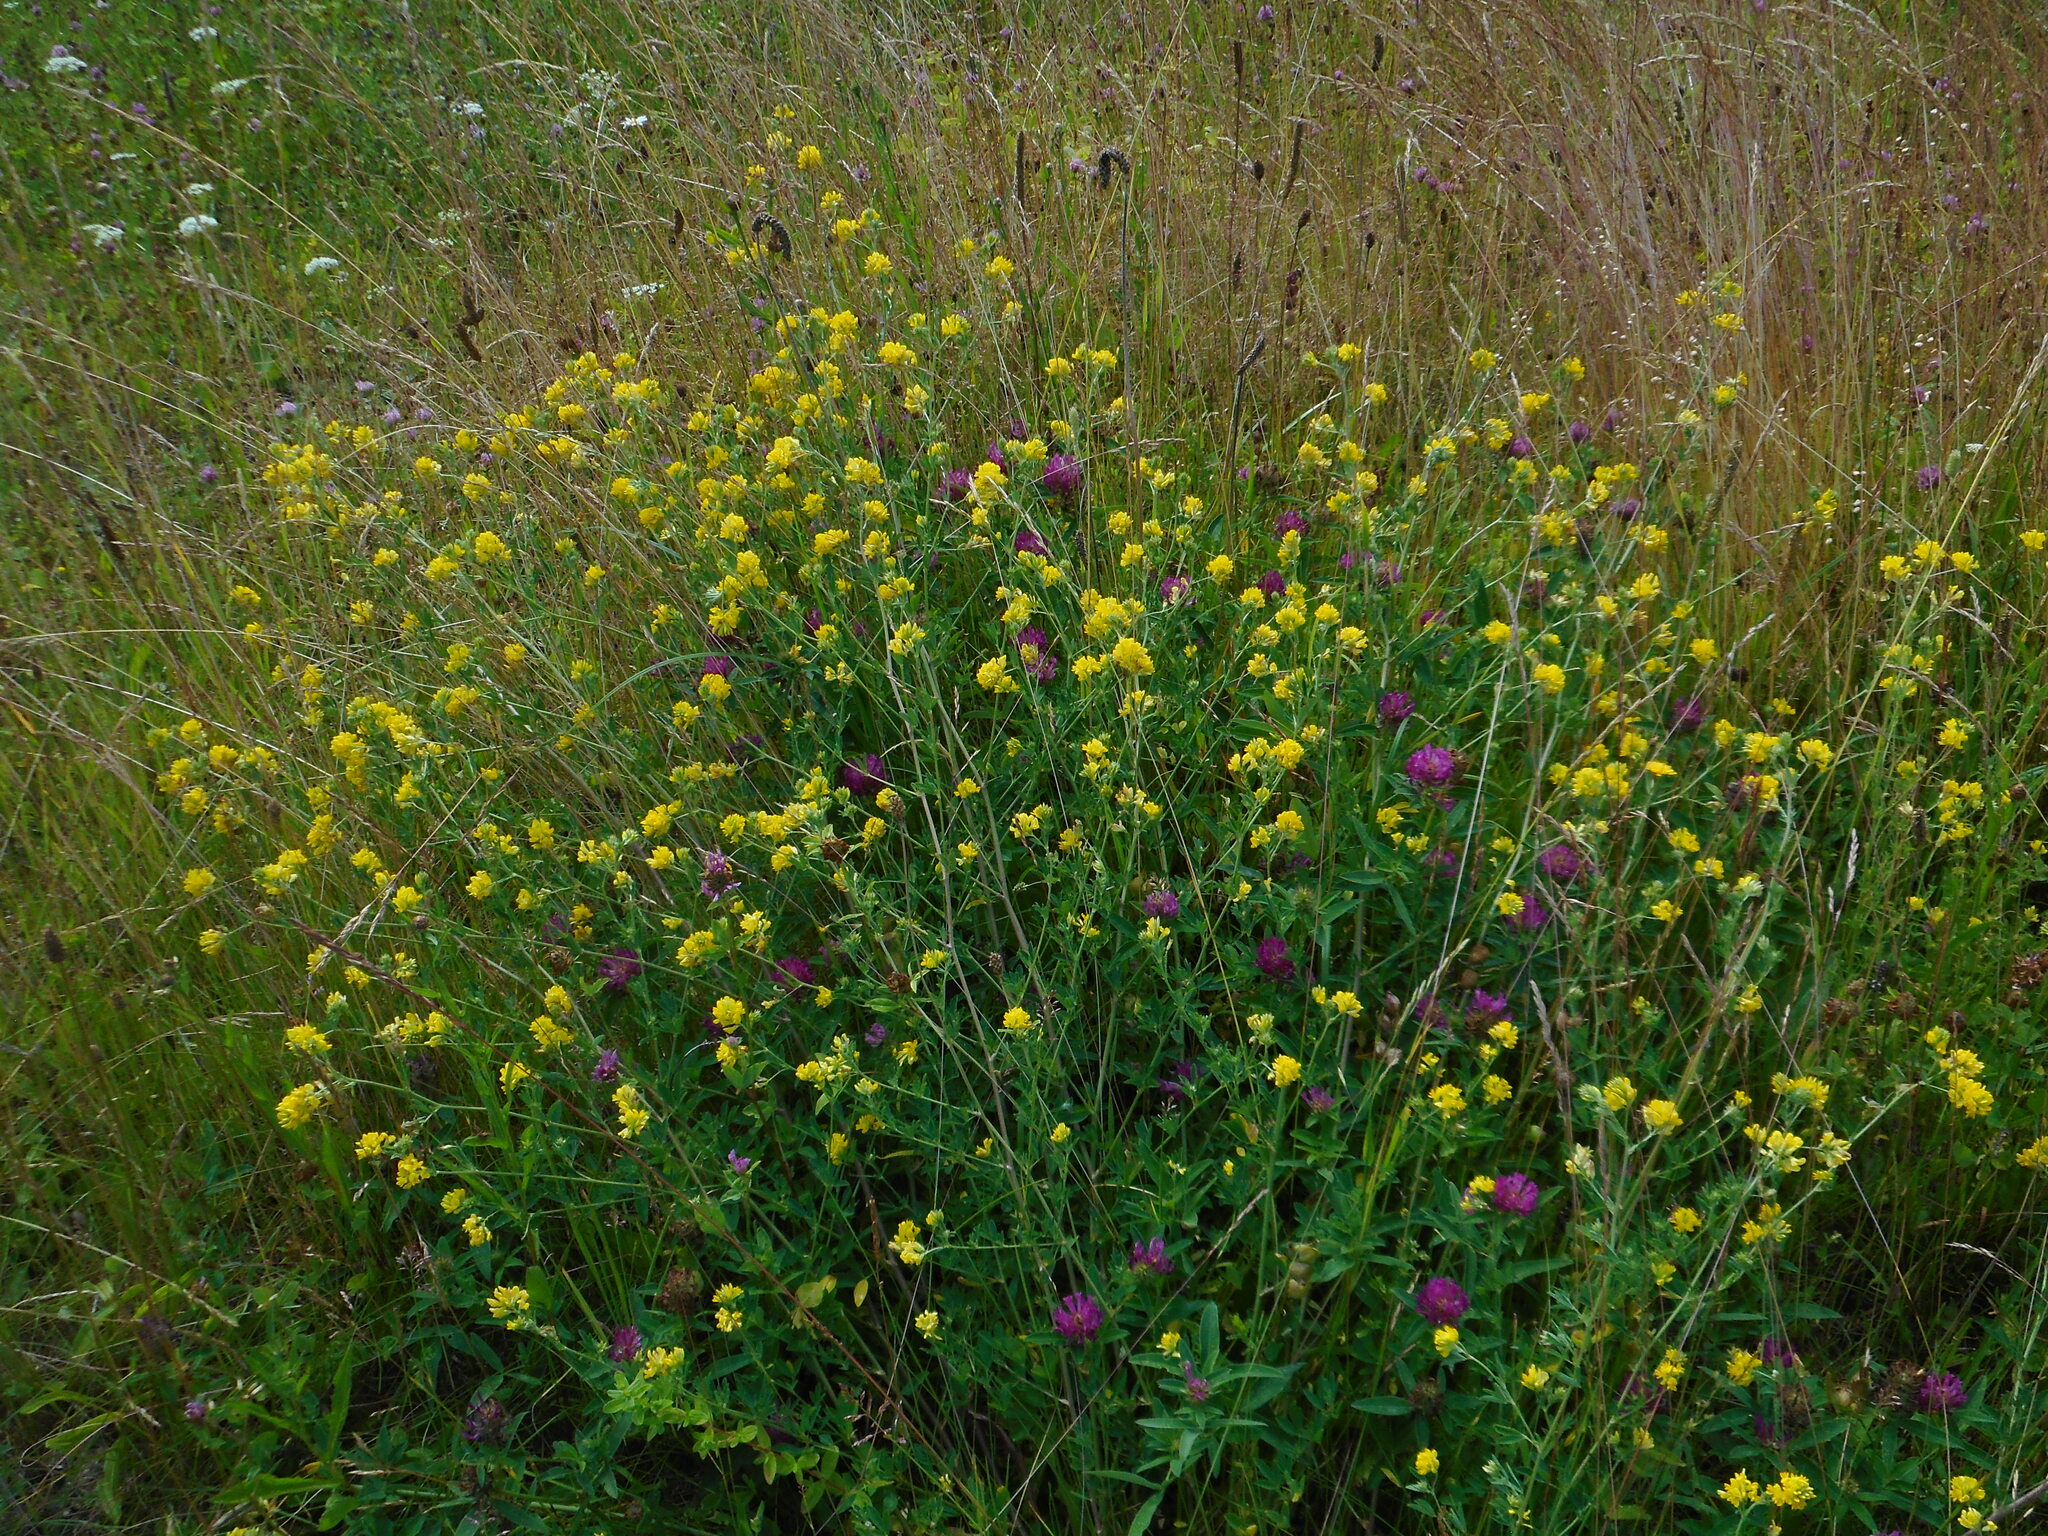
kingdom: Plantae
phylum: Tracheophyta
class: Magnoliopsida
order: Fabales
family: Fabaceae
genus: Medicago
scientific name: Medicago falcata
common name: Sickle medick
